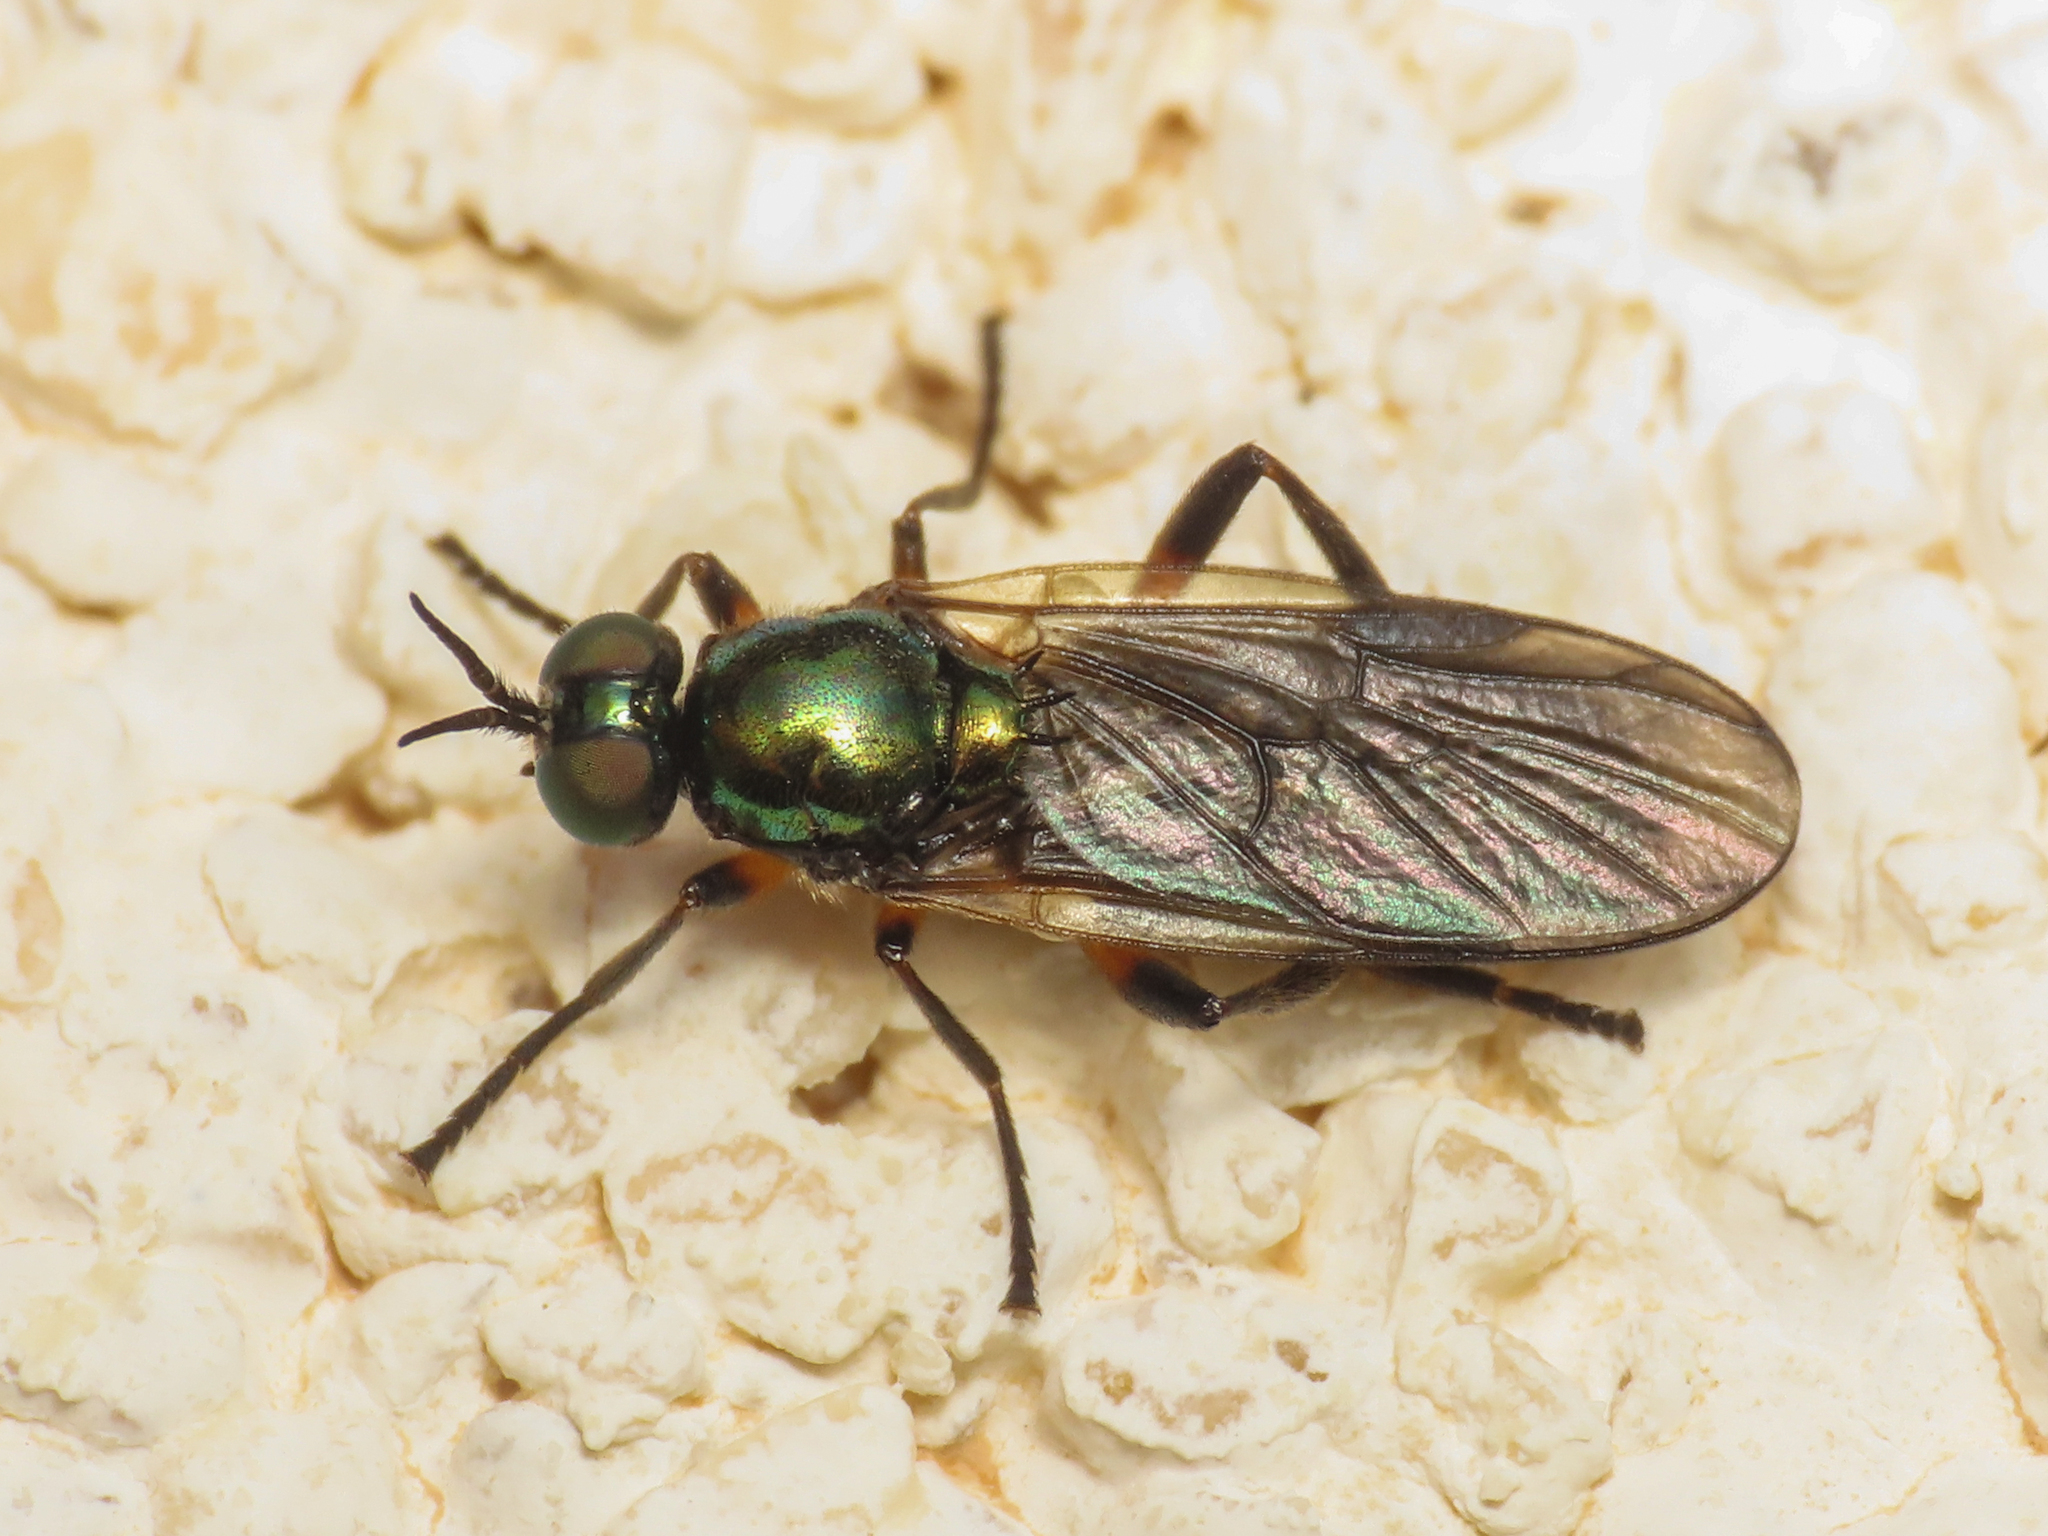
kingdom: Animalia
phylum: Arthropoda
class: Insecta
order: Diptera
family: Stratiomyidae
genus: Actina
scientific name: Actina chalybea
